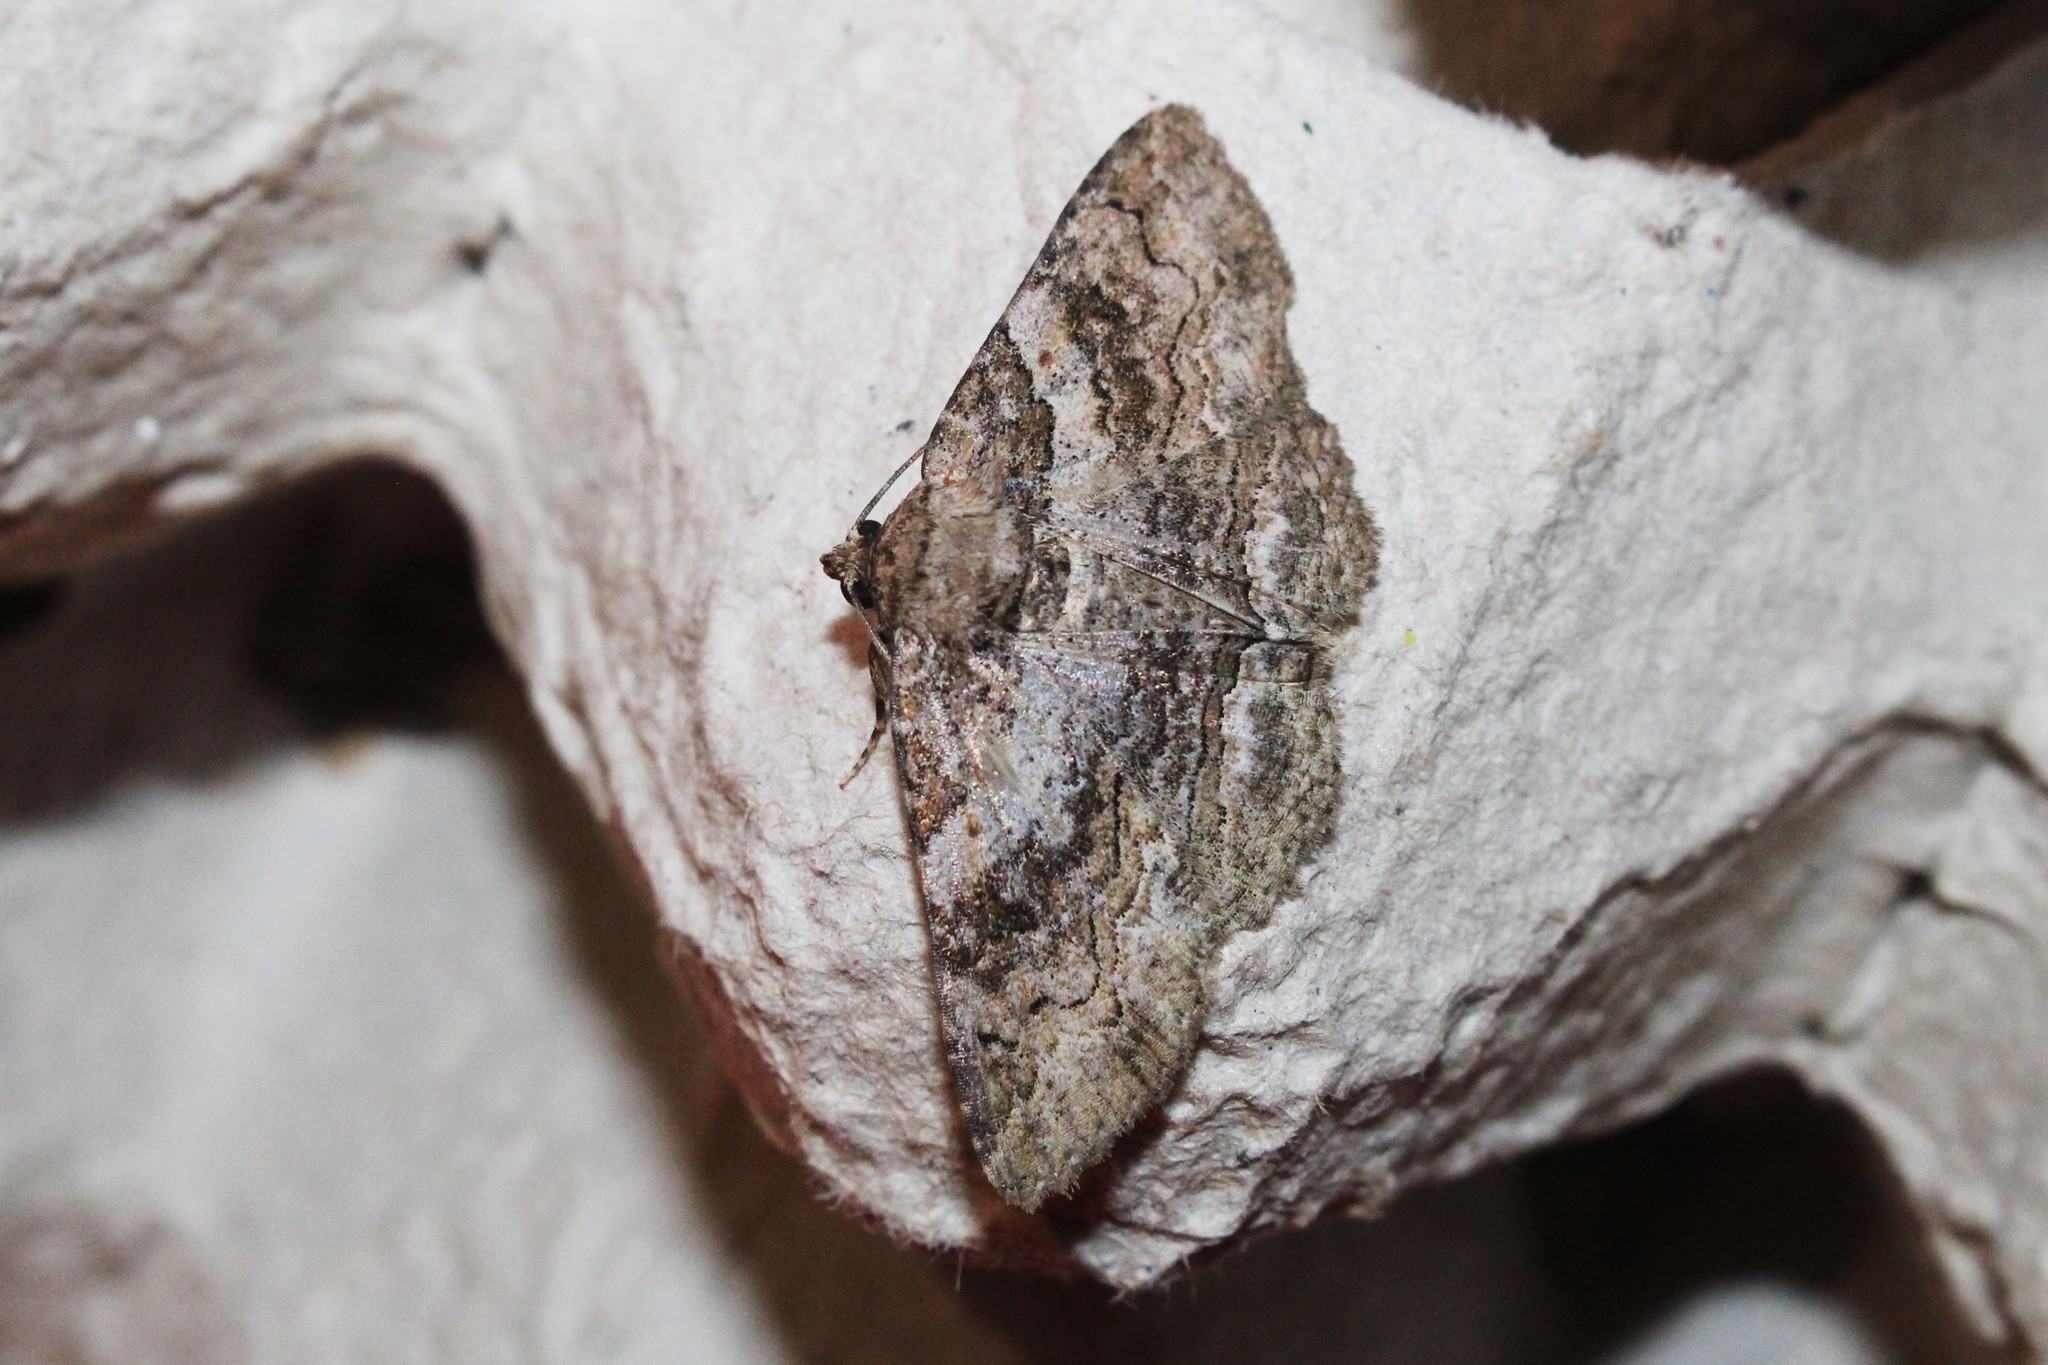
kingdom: Animalia
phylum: Arthropoda
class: Insecta
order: Lepidoptera
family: Erebidae
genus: Zale
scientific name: Zale galbanata
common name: Maple zale
